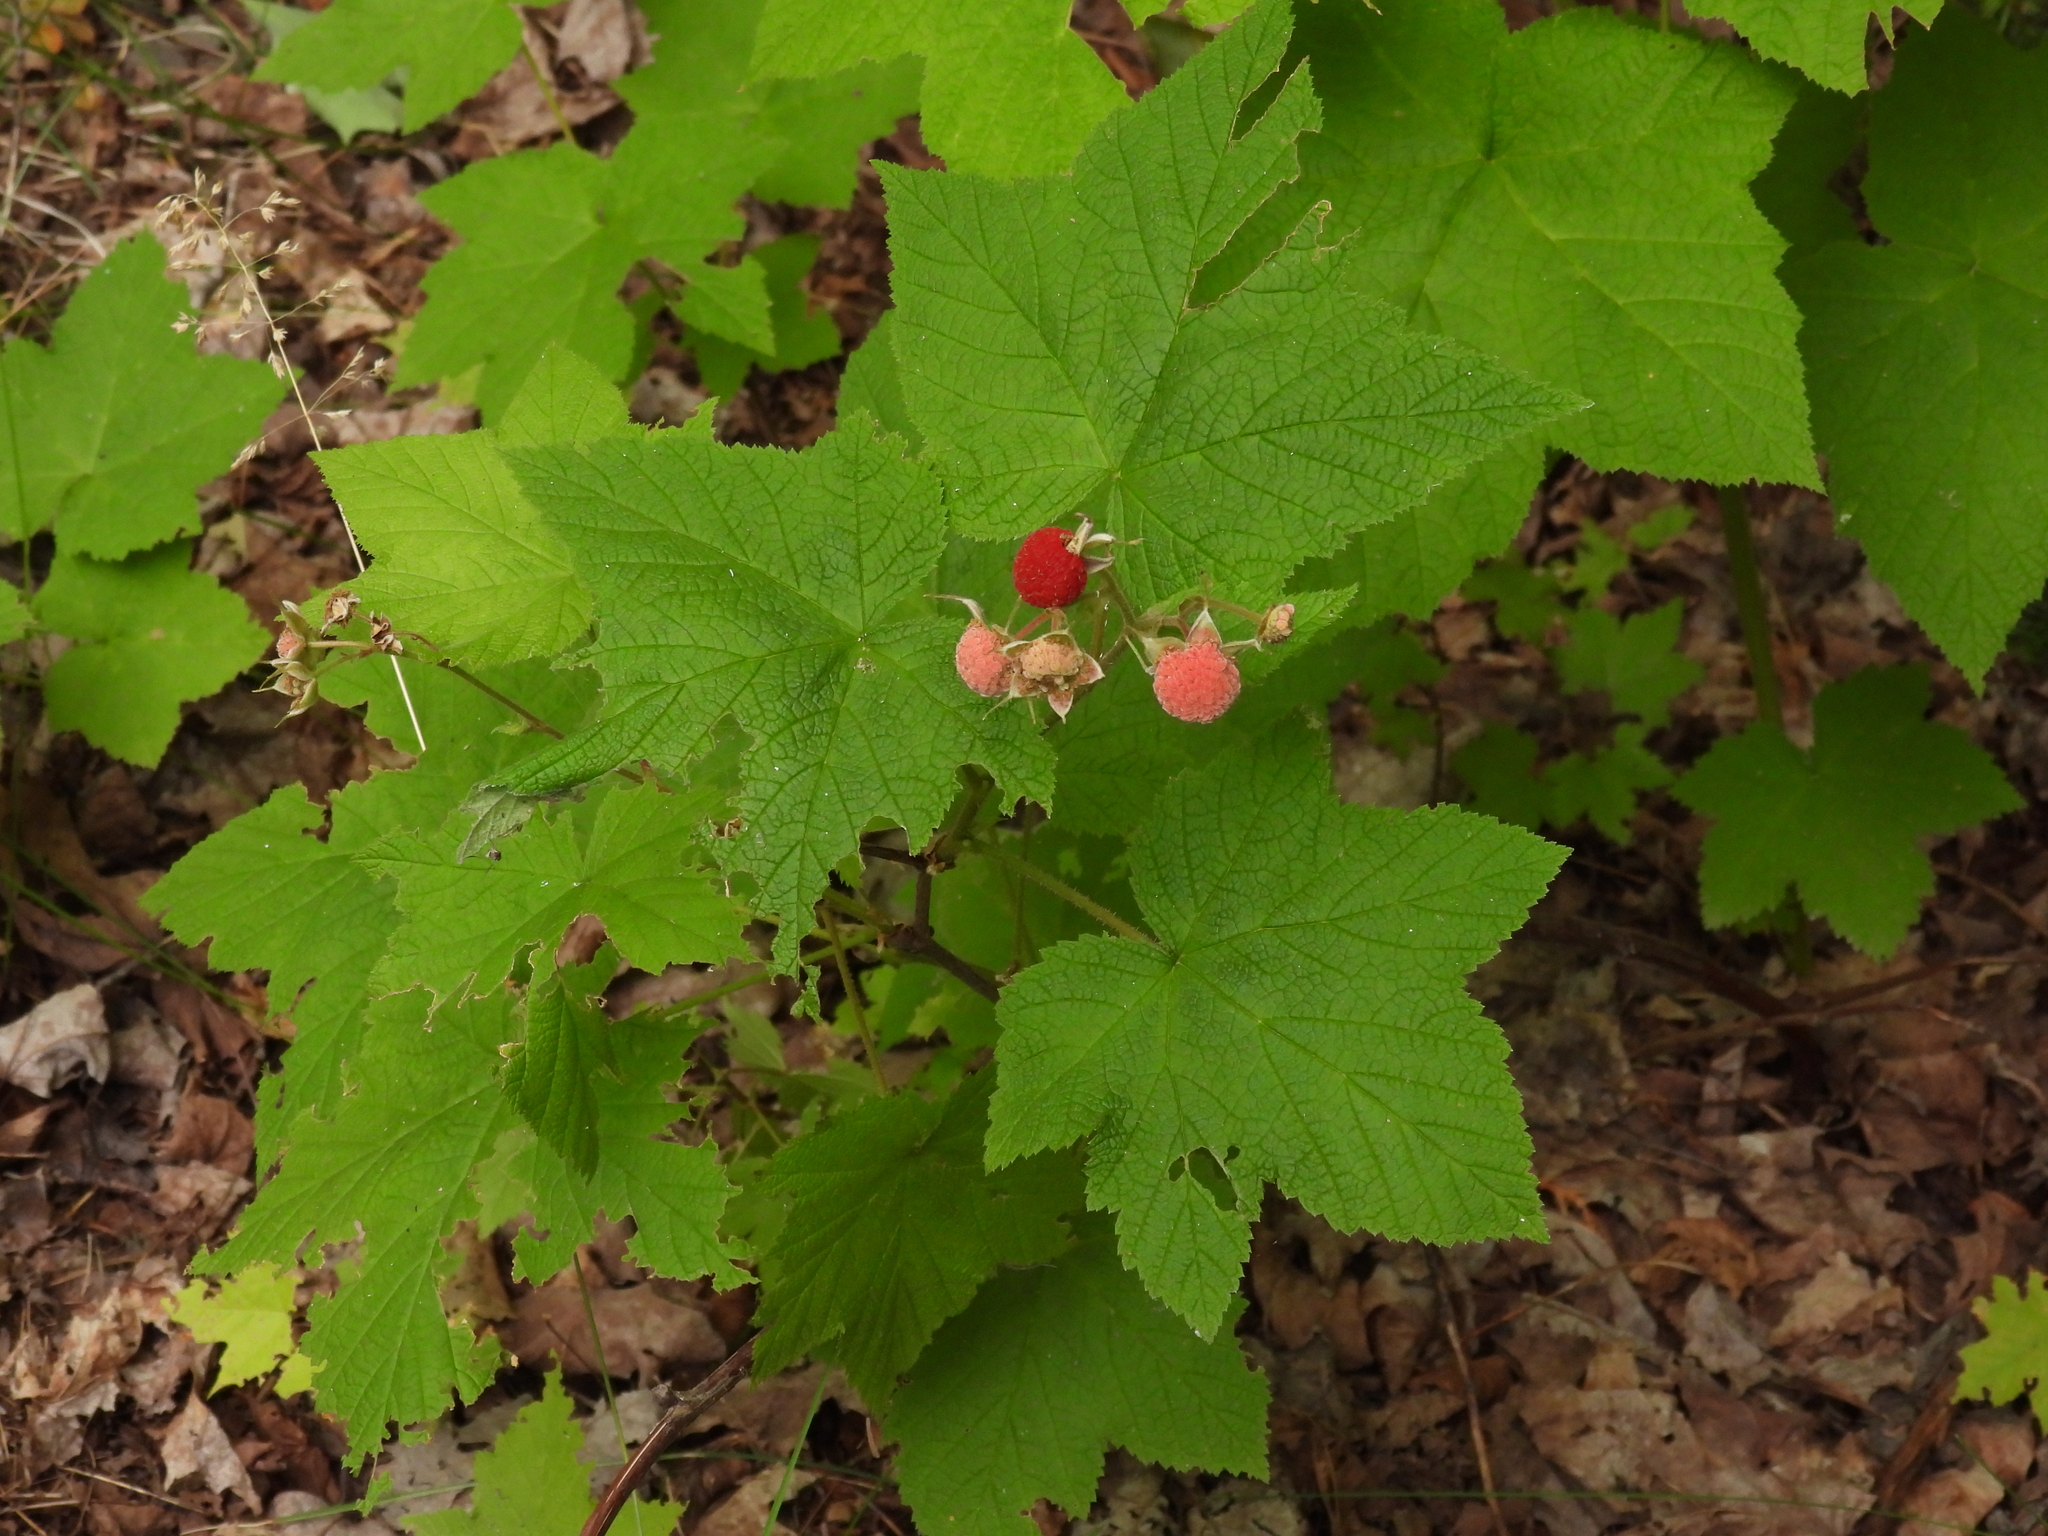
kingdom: Plantae
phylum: Tracheophyta
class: Magnoliopsida
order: Rosales
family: Rosaceae
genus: Rubus
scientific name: Rubus parviflorus
